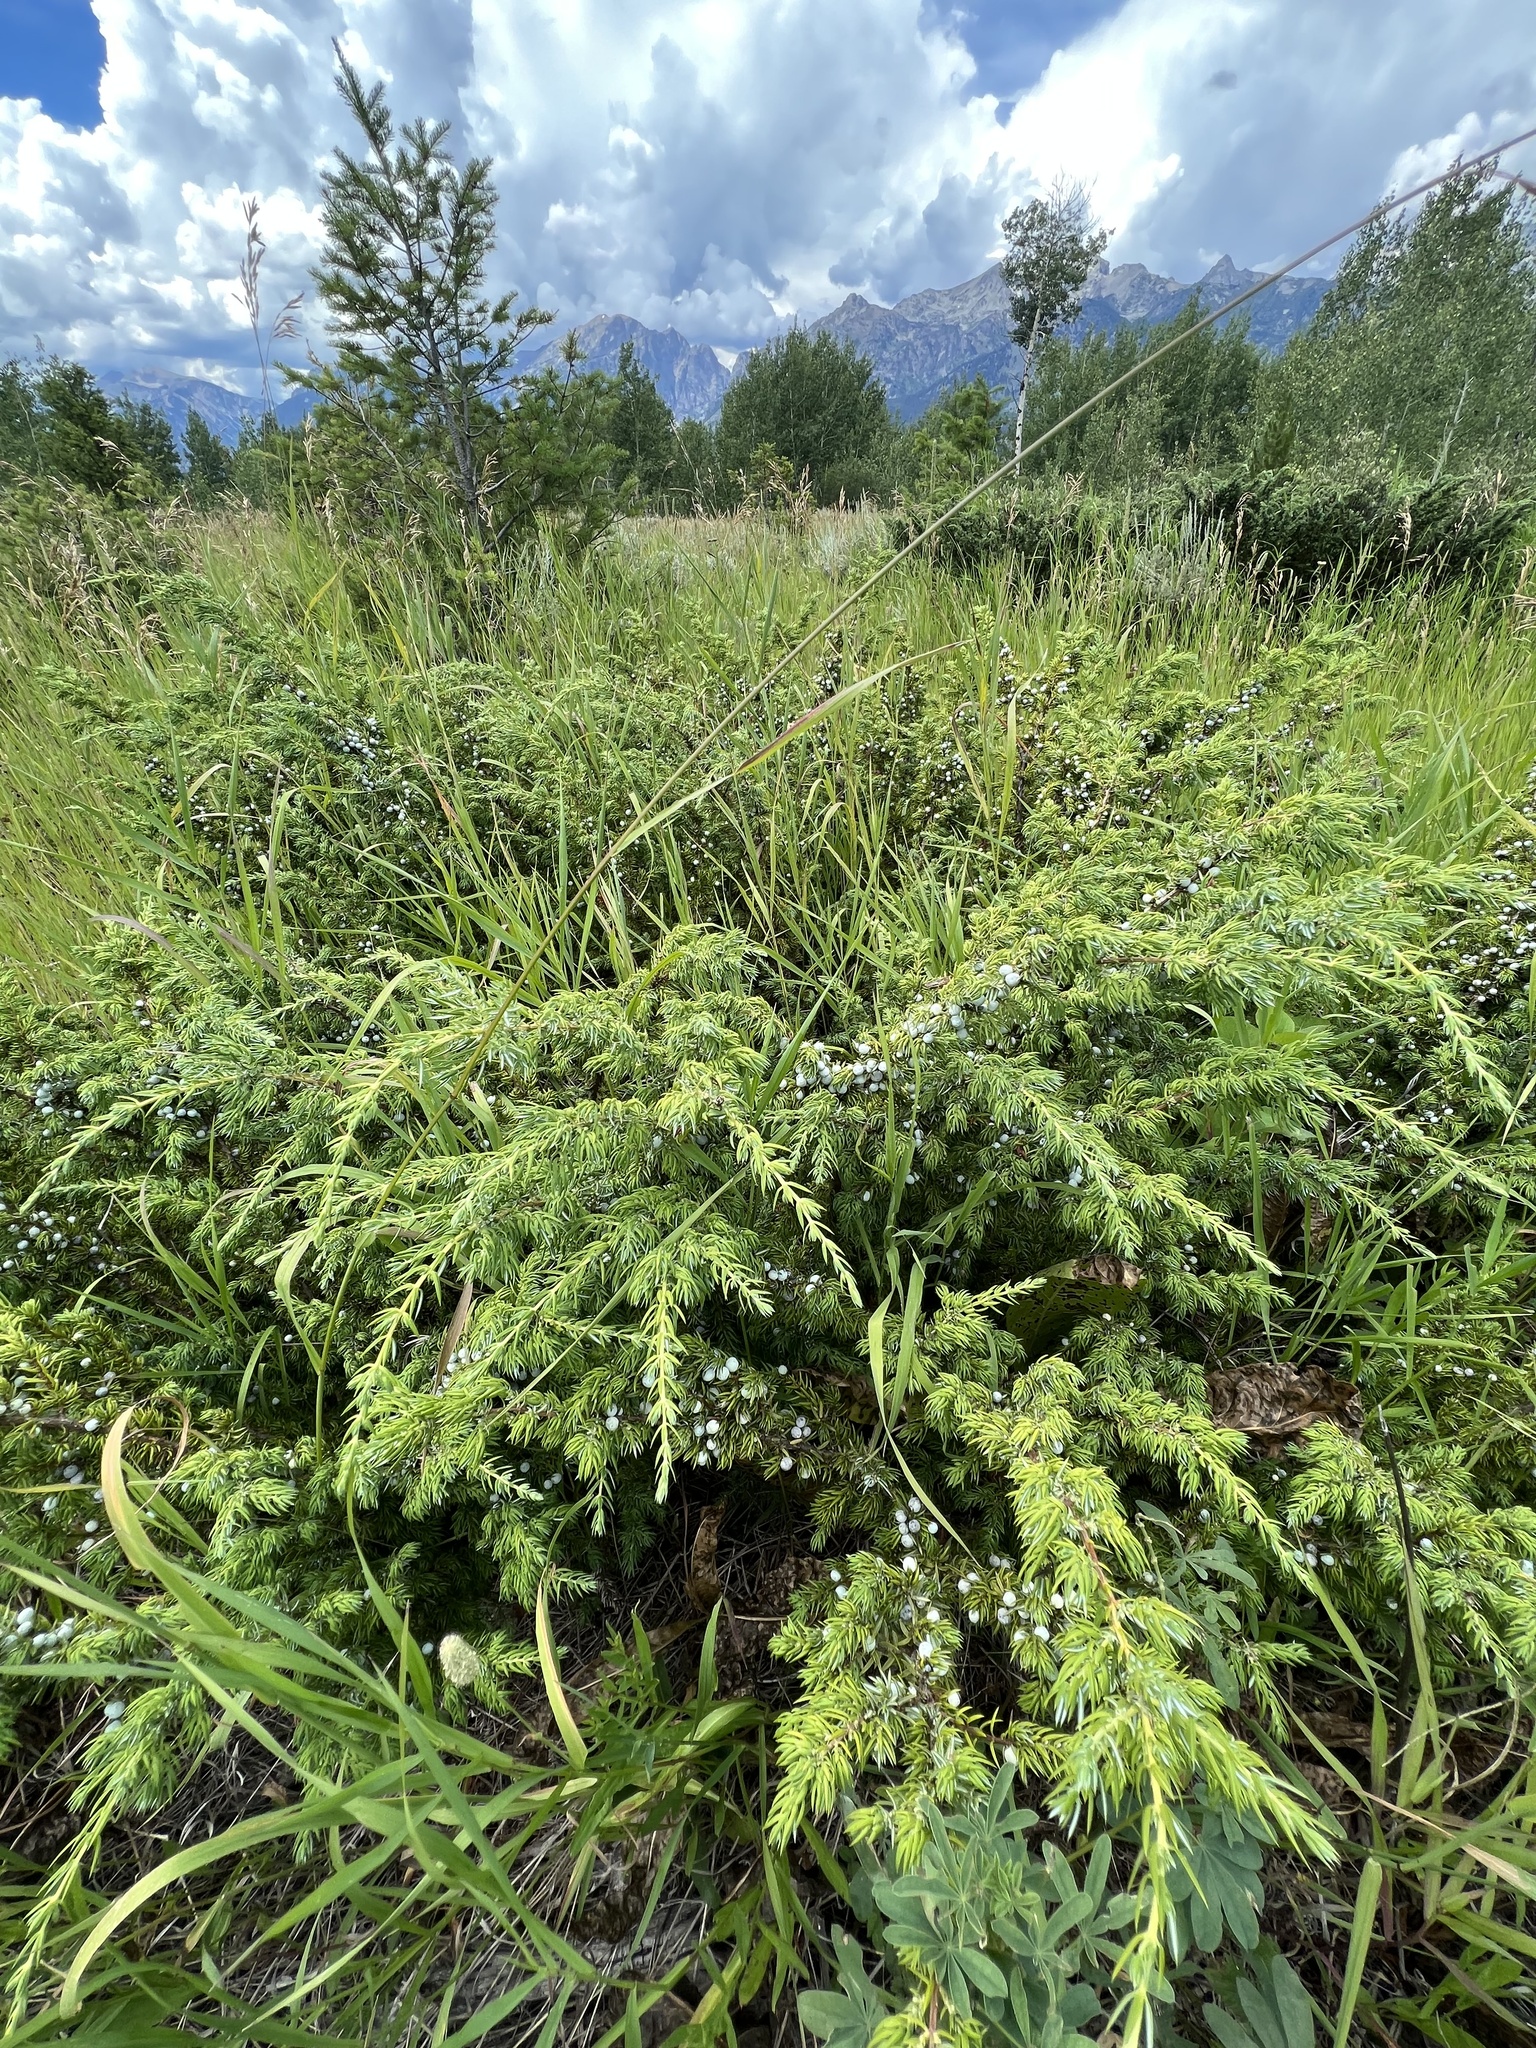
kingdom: Plantae
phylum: Tracheophyta
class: Pinopsida
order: Pinales
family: Cupressaceae
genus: Juniperus
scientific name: Juniperus communis
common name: Common juniper
